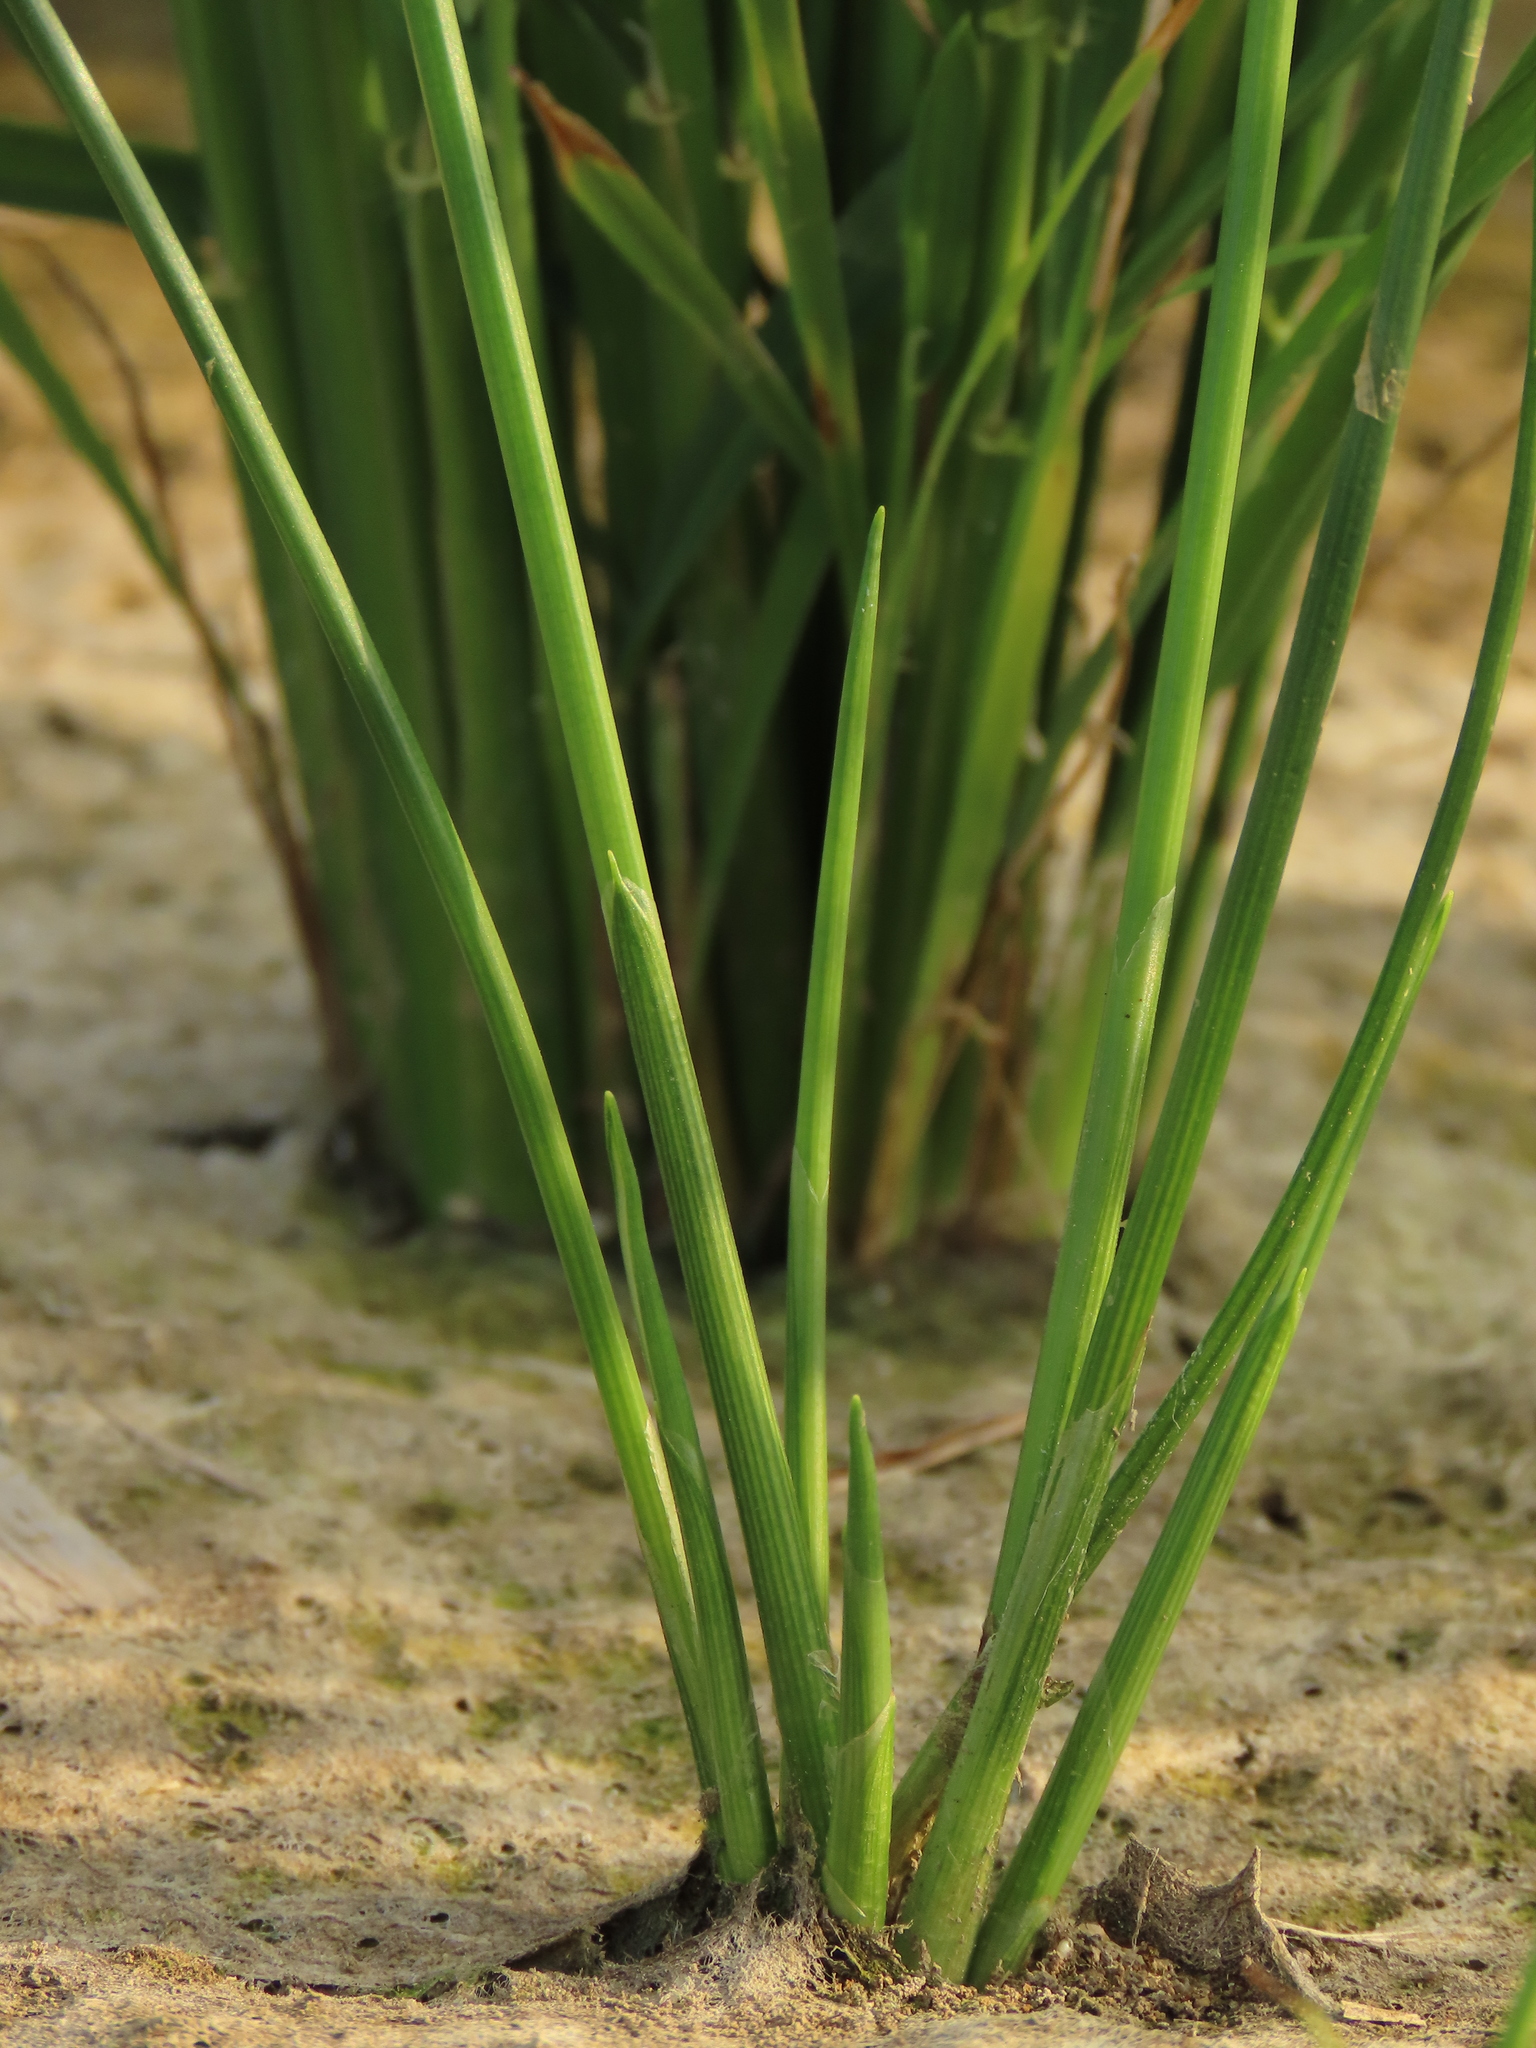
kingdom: Plantae
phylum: Tracheophyta
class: Liliopsida
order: Poales
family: Cyperaceae
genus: Schoenoplectiella
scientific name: Schoenoplectiella juncoides
